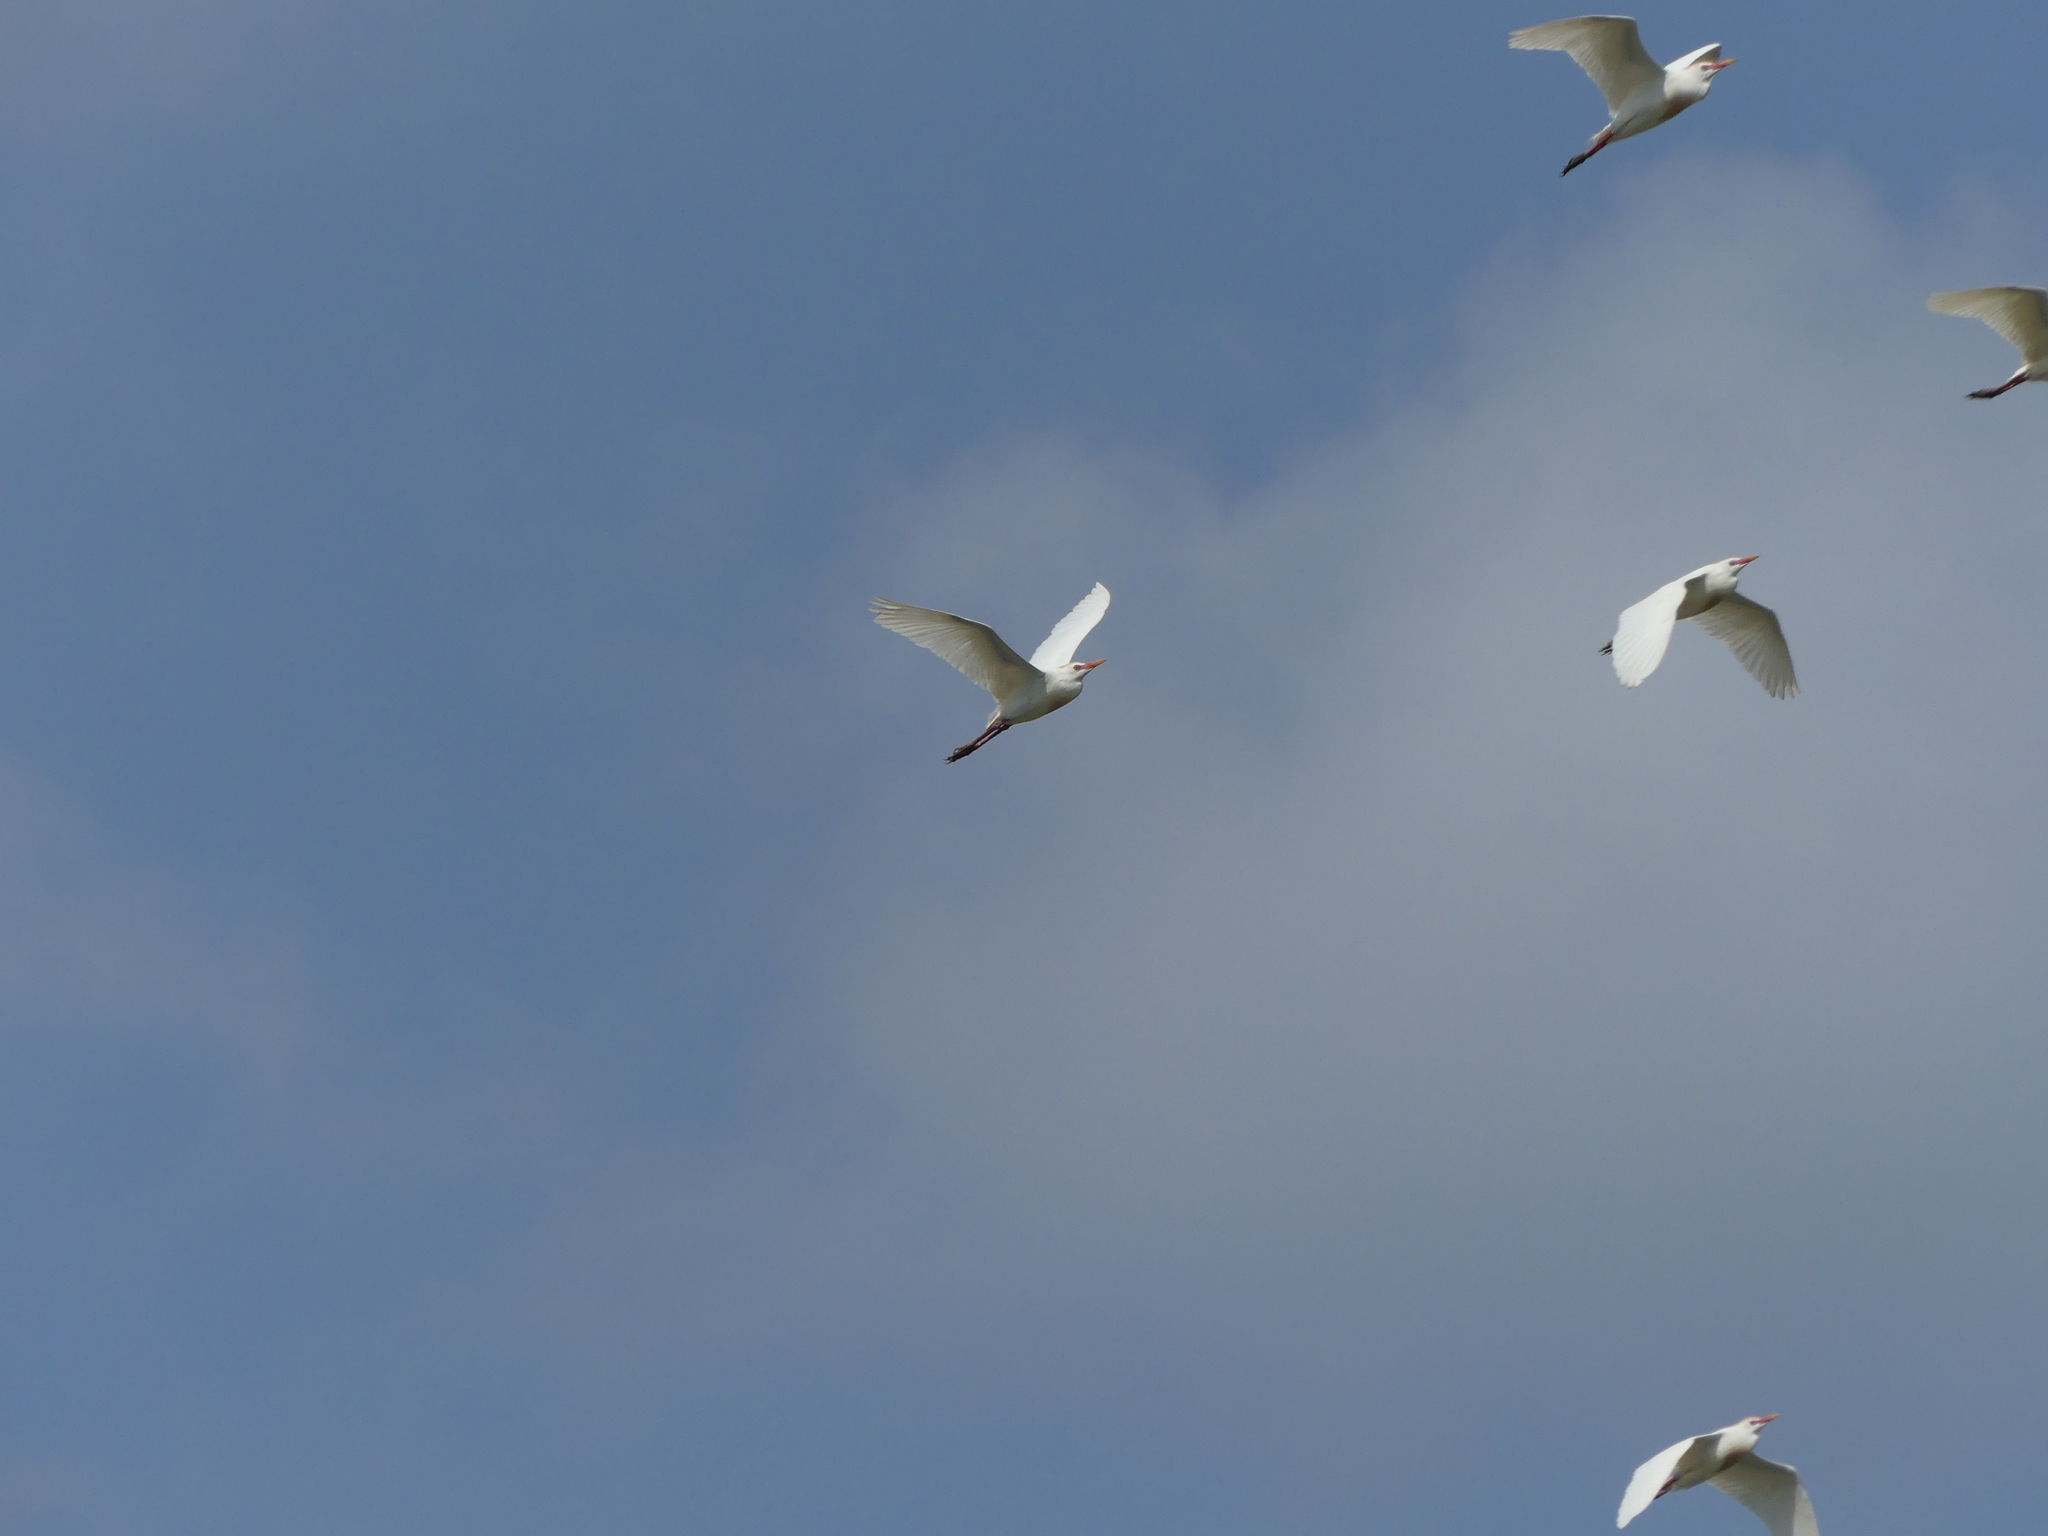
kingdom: Animalia
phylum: Chordata
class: Aves
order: Pelecaniformes
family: Ardeidae
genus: Bubulcus
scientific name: Bubulcus ibis
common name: Cattle egret
